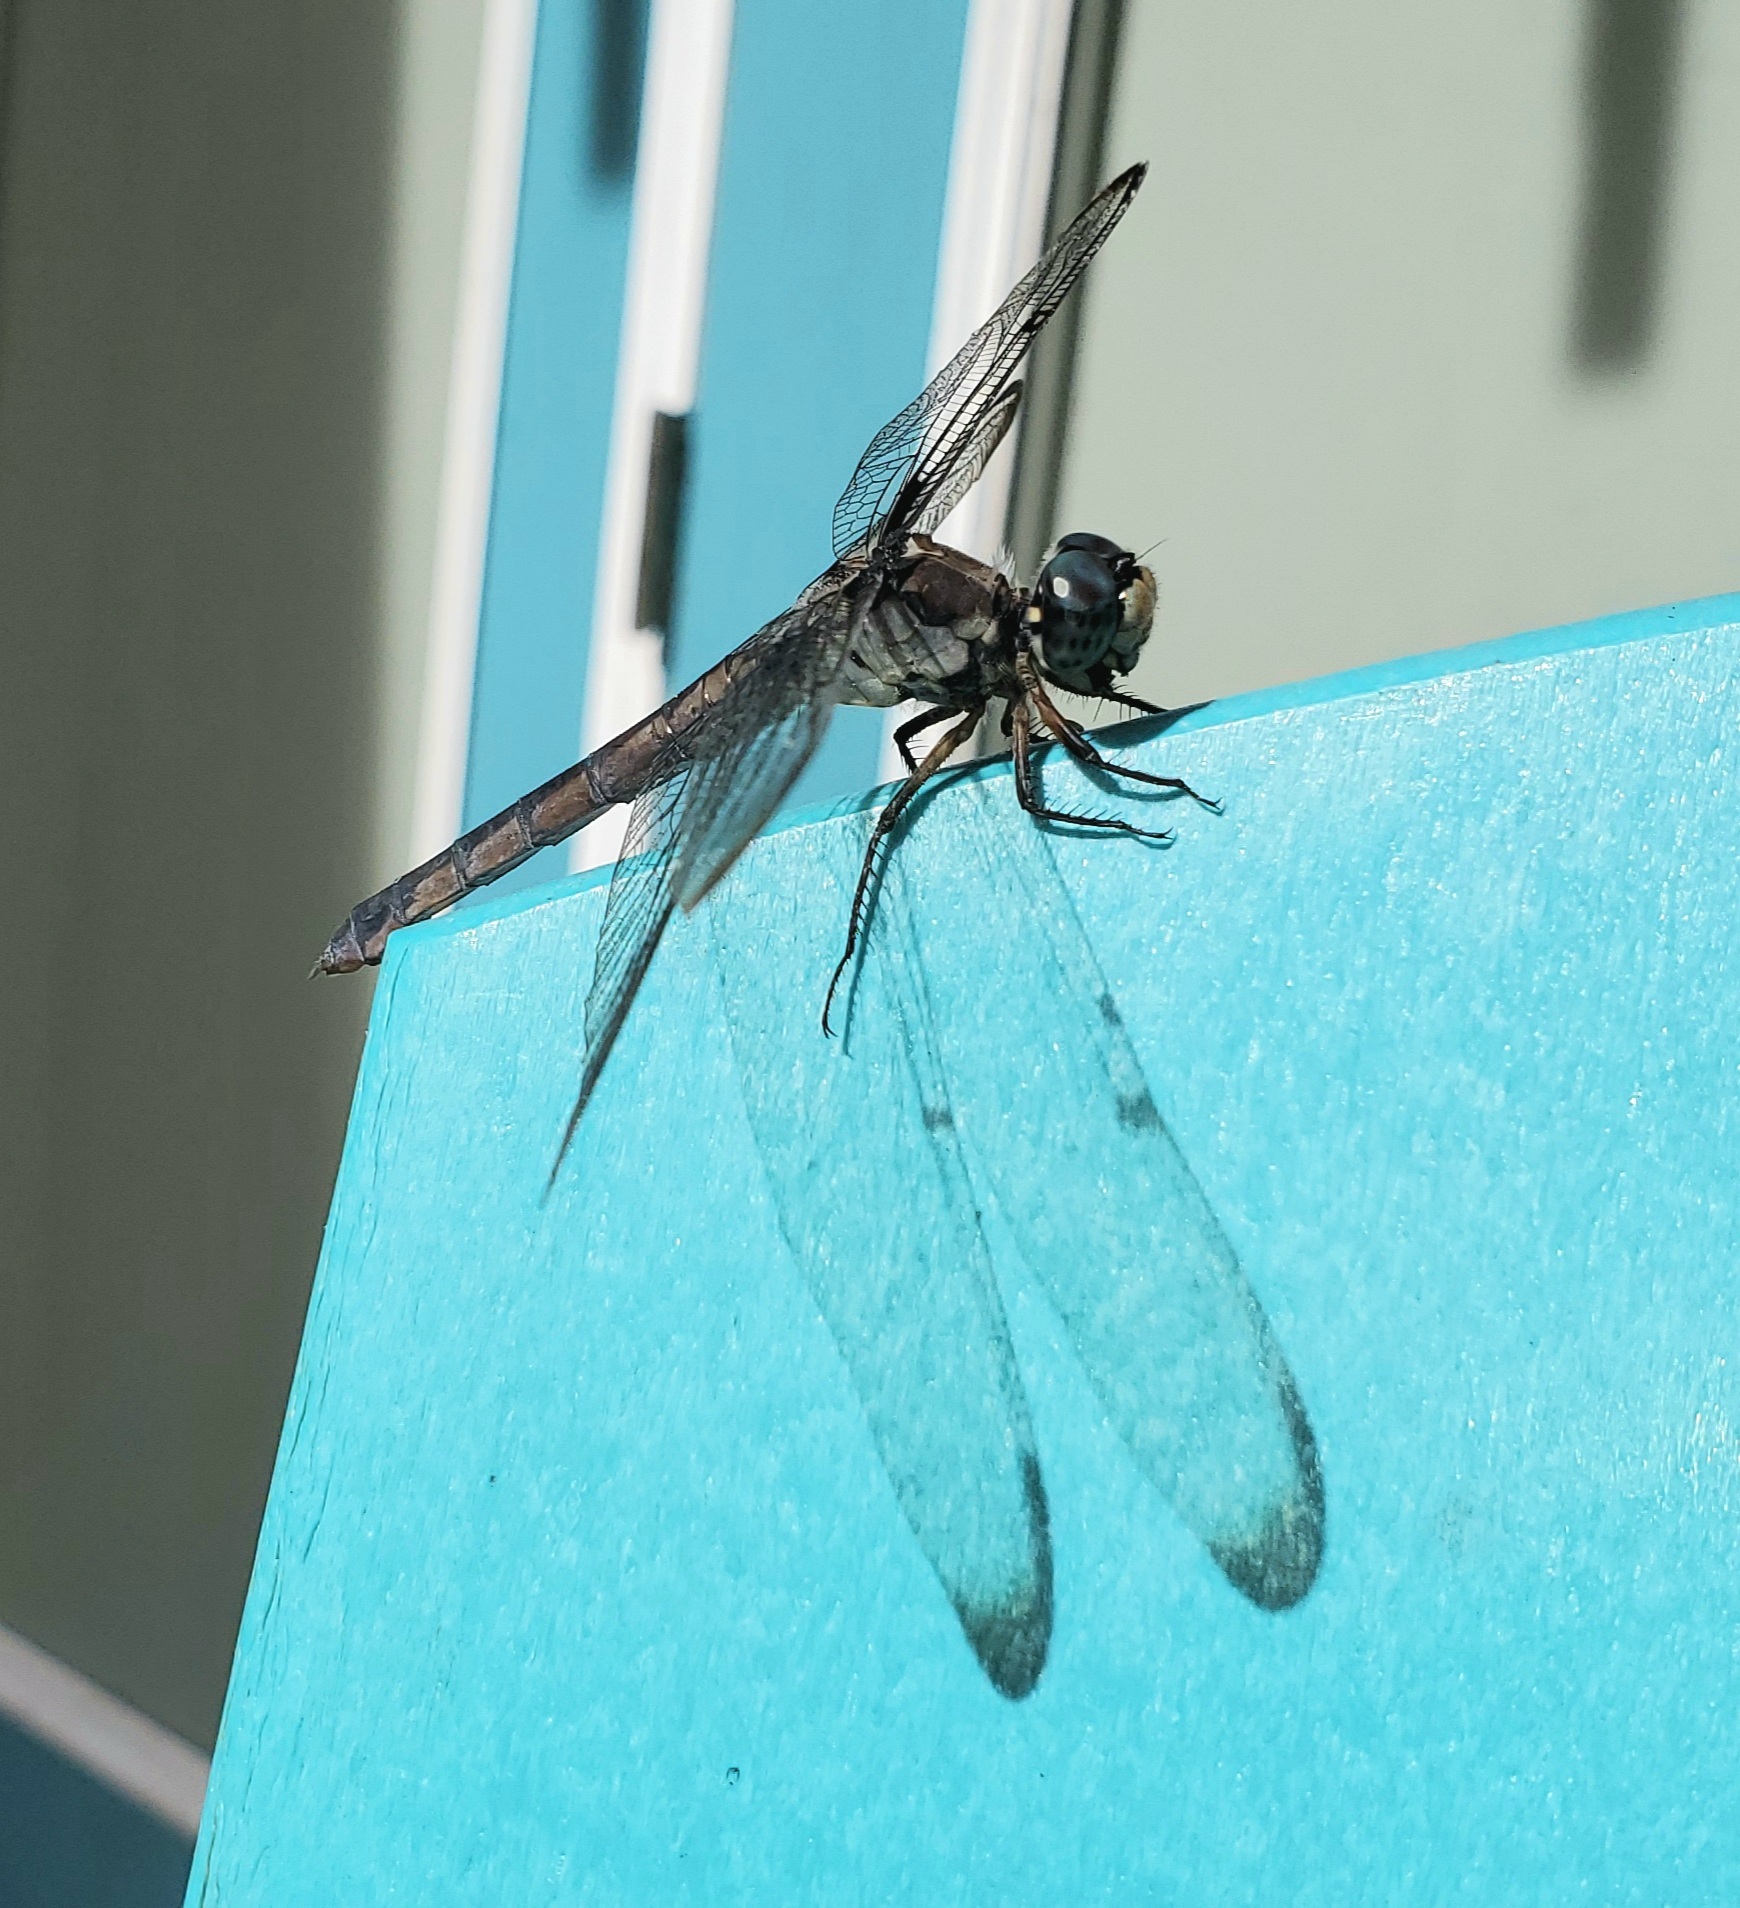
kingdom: Animalia
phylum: Arthropoda
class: Insecta
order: Odonata
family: Libellulidae
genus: Libellula
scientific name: Libellula vibrans
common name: Great blue skimmer
